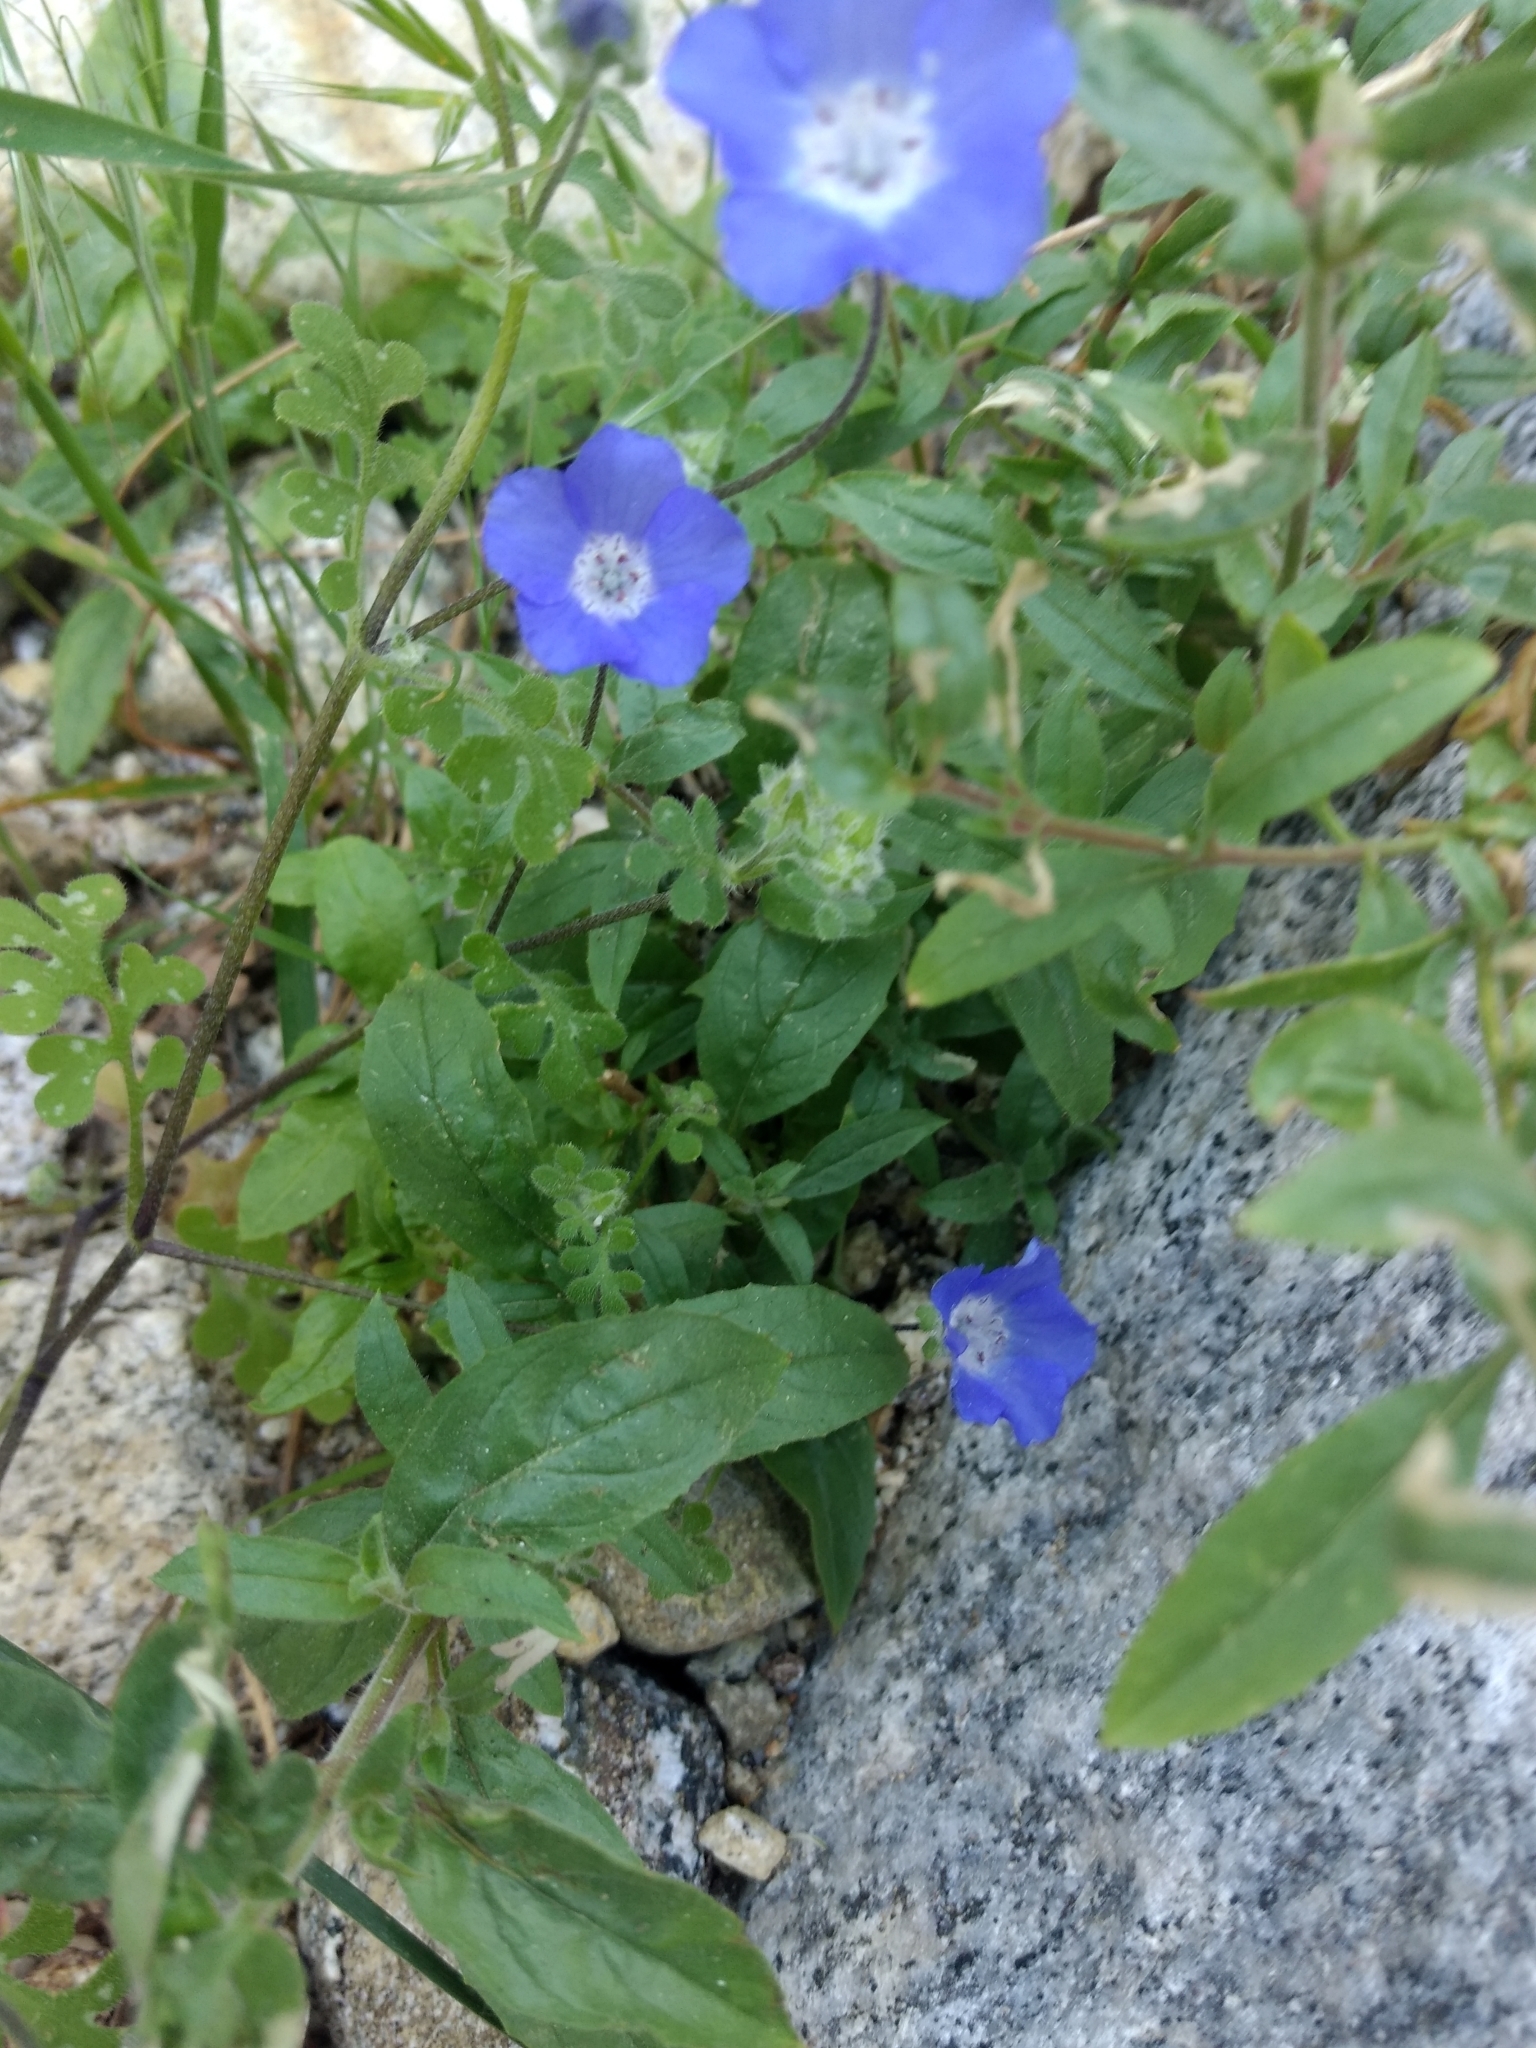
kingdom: Plantae
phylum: Tracheophyta
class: Magnoliopsida
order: Boraginales
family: Hydrophyllaceae
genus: Nemophila
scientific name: Nemophila menziesii
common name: Baby's-blue-eyes
